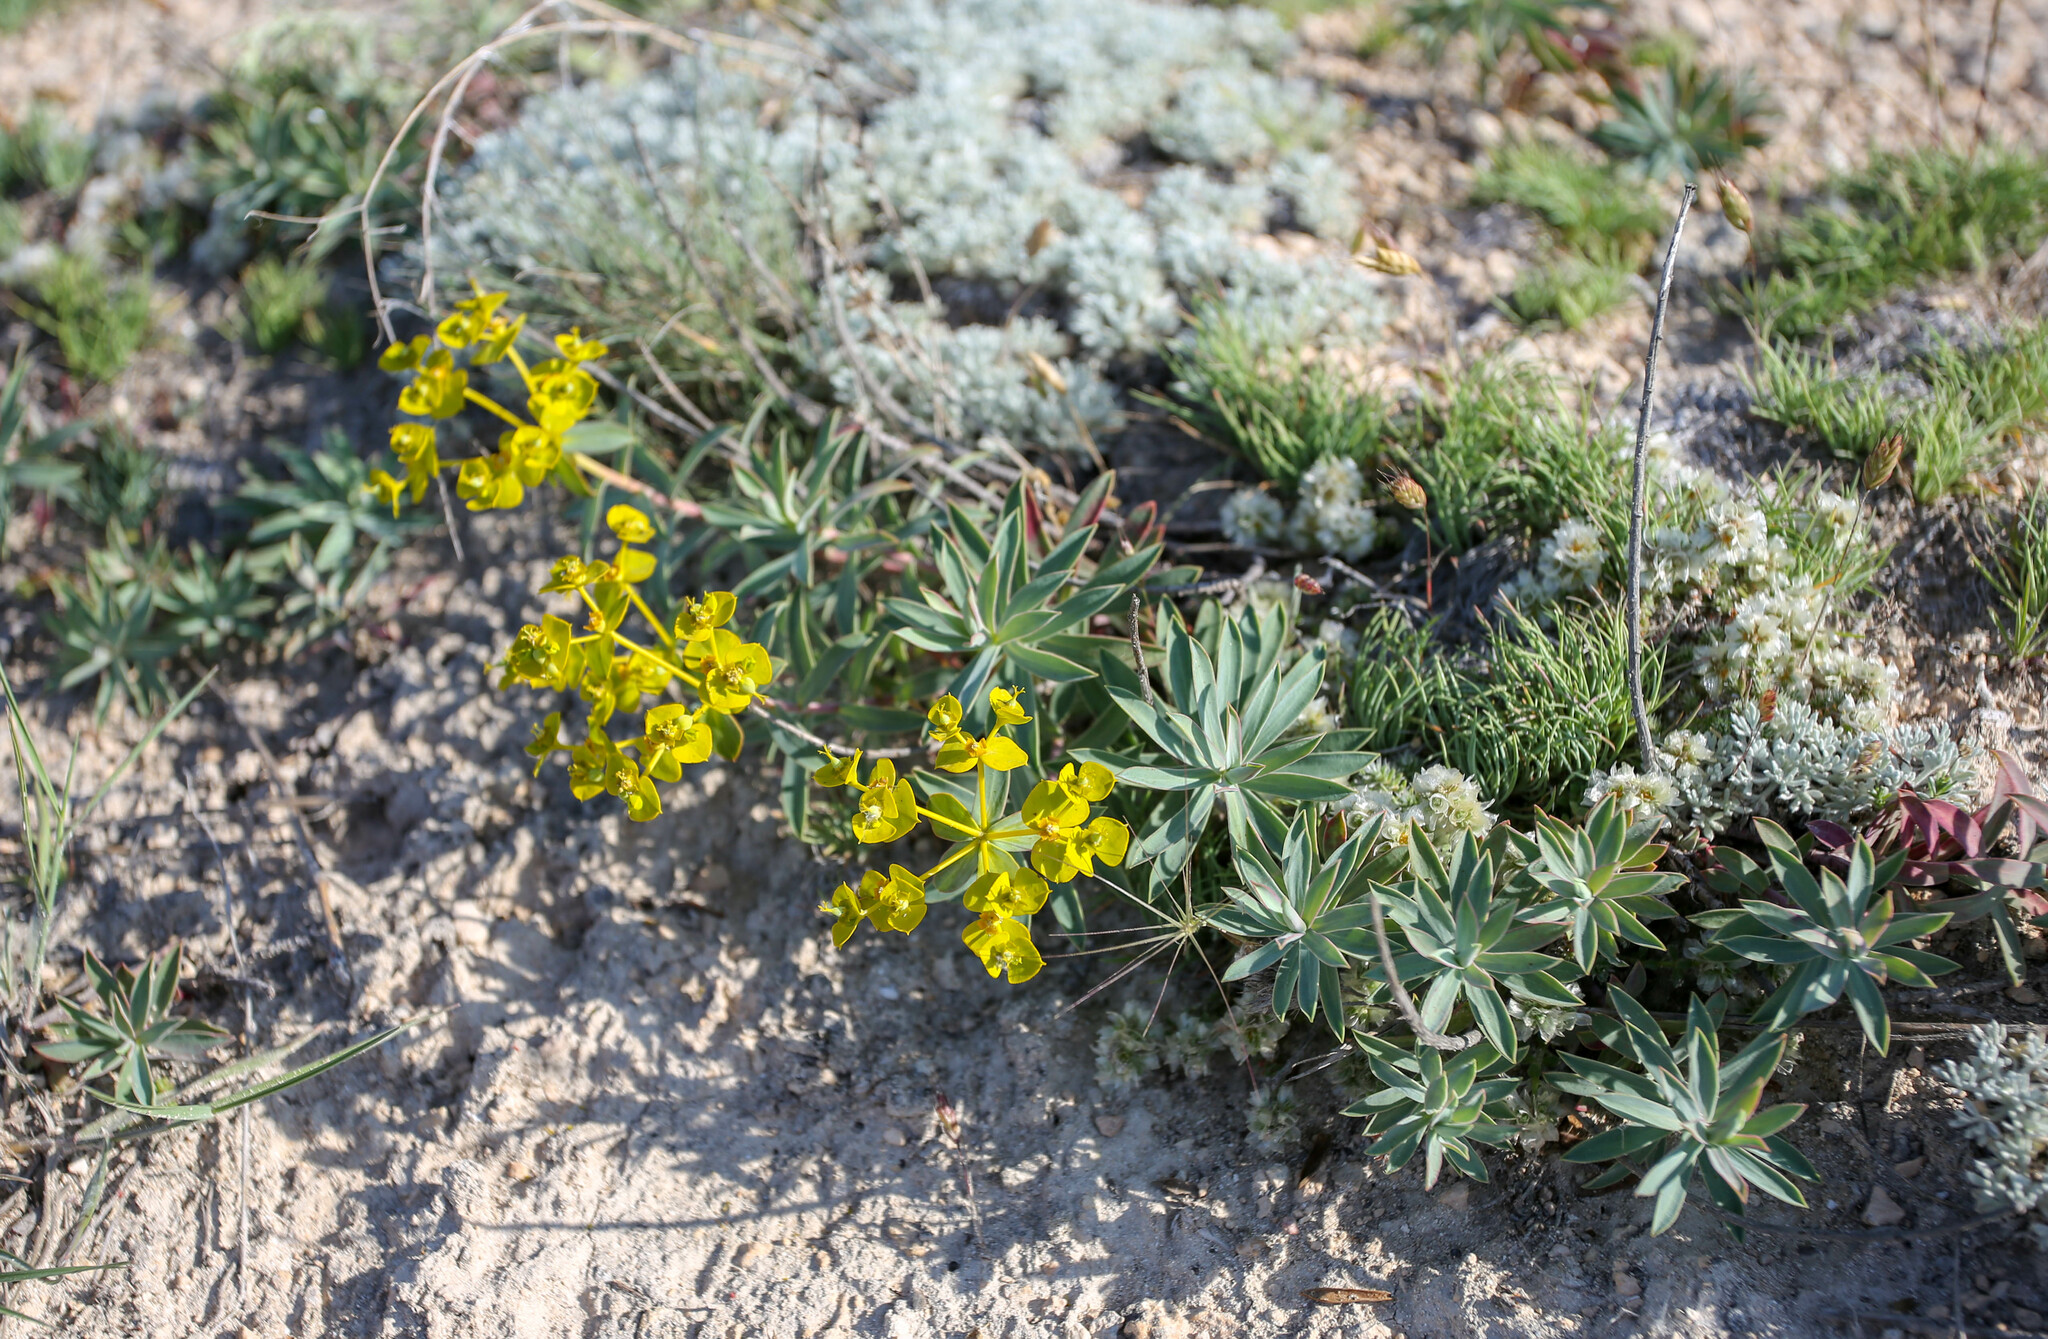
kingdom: Plantae
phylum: Tracheophyta
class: Magnoliopsida
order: Malpighiales
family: Euphorbiaceae
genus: Euphorbia
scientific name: Euphorbia glareosa
